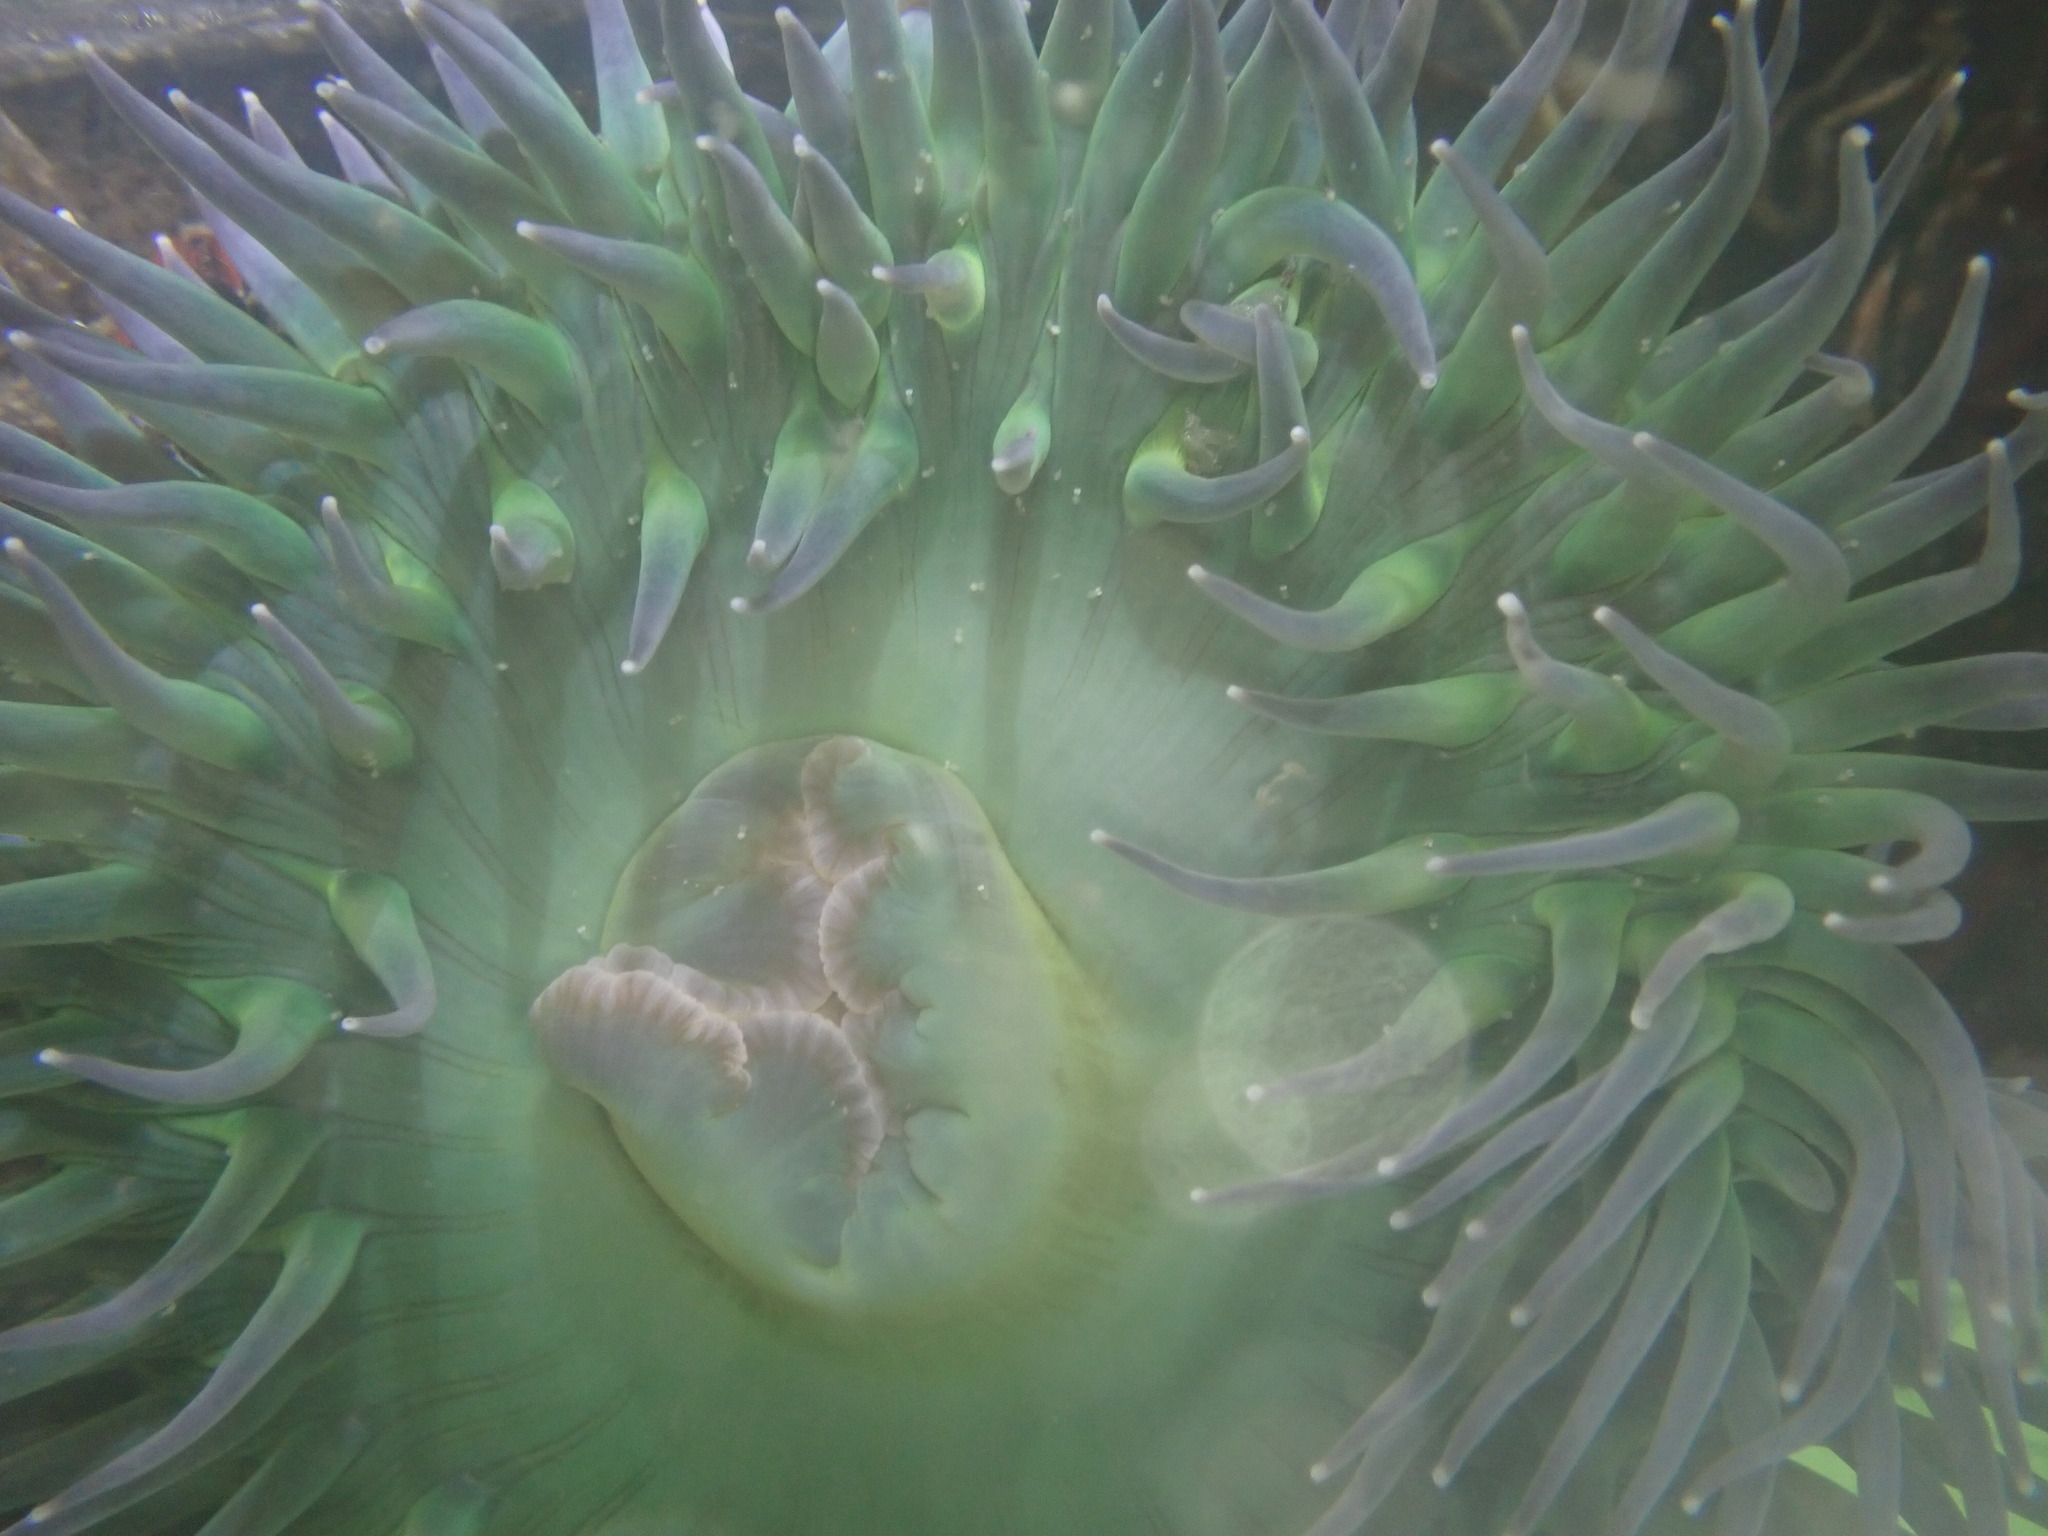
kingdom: Animalia
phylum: Cnidaria
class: Anthozoa
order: Actiniaria
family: Actiniidae
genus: Anthopleura
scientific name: Anthopleura xanthogrammica
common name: Giant green anemone
